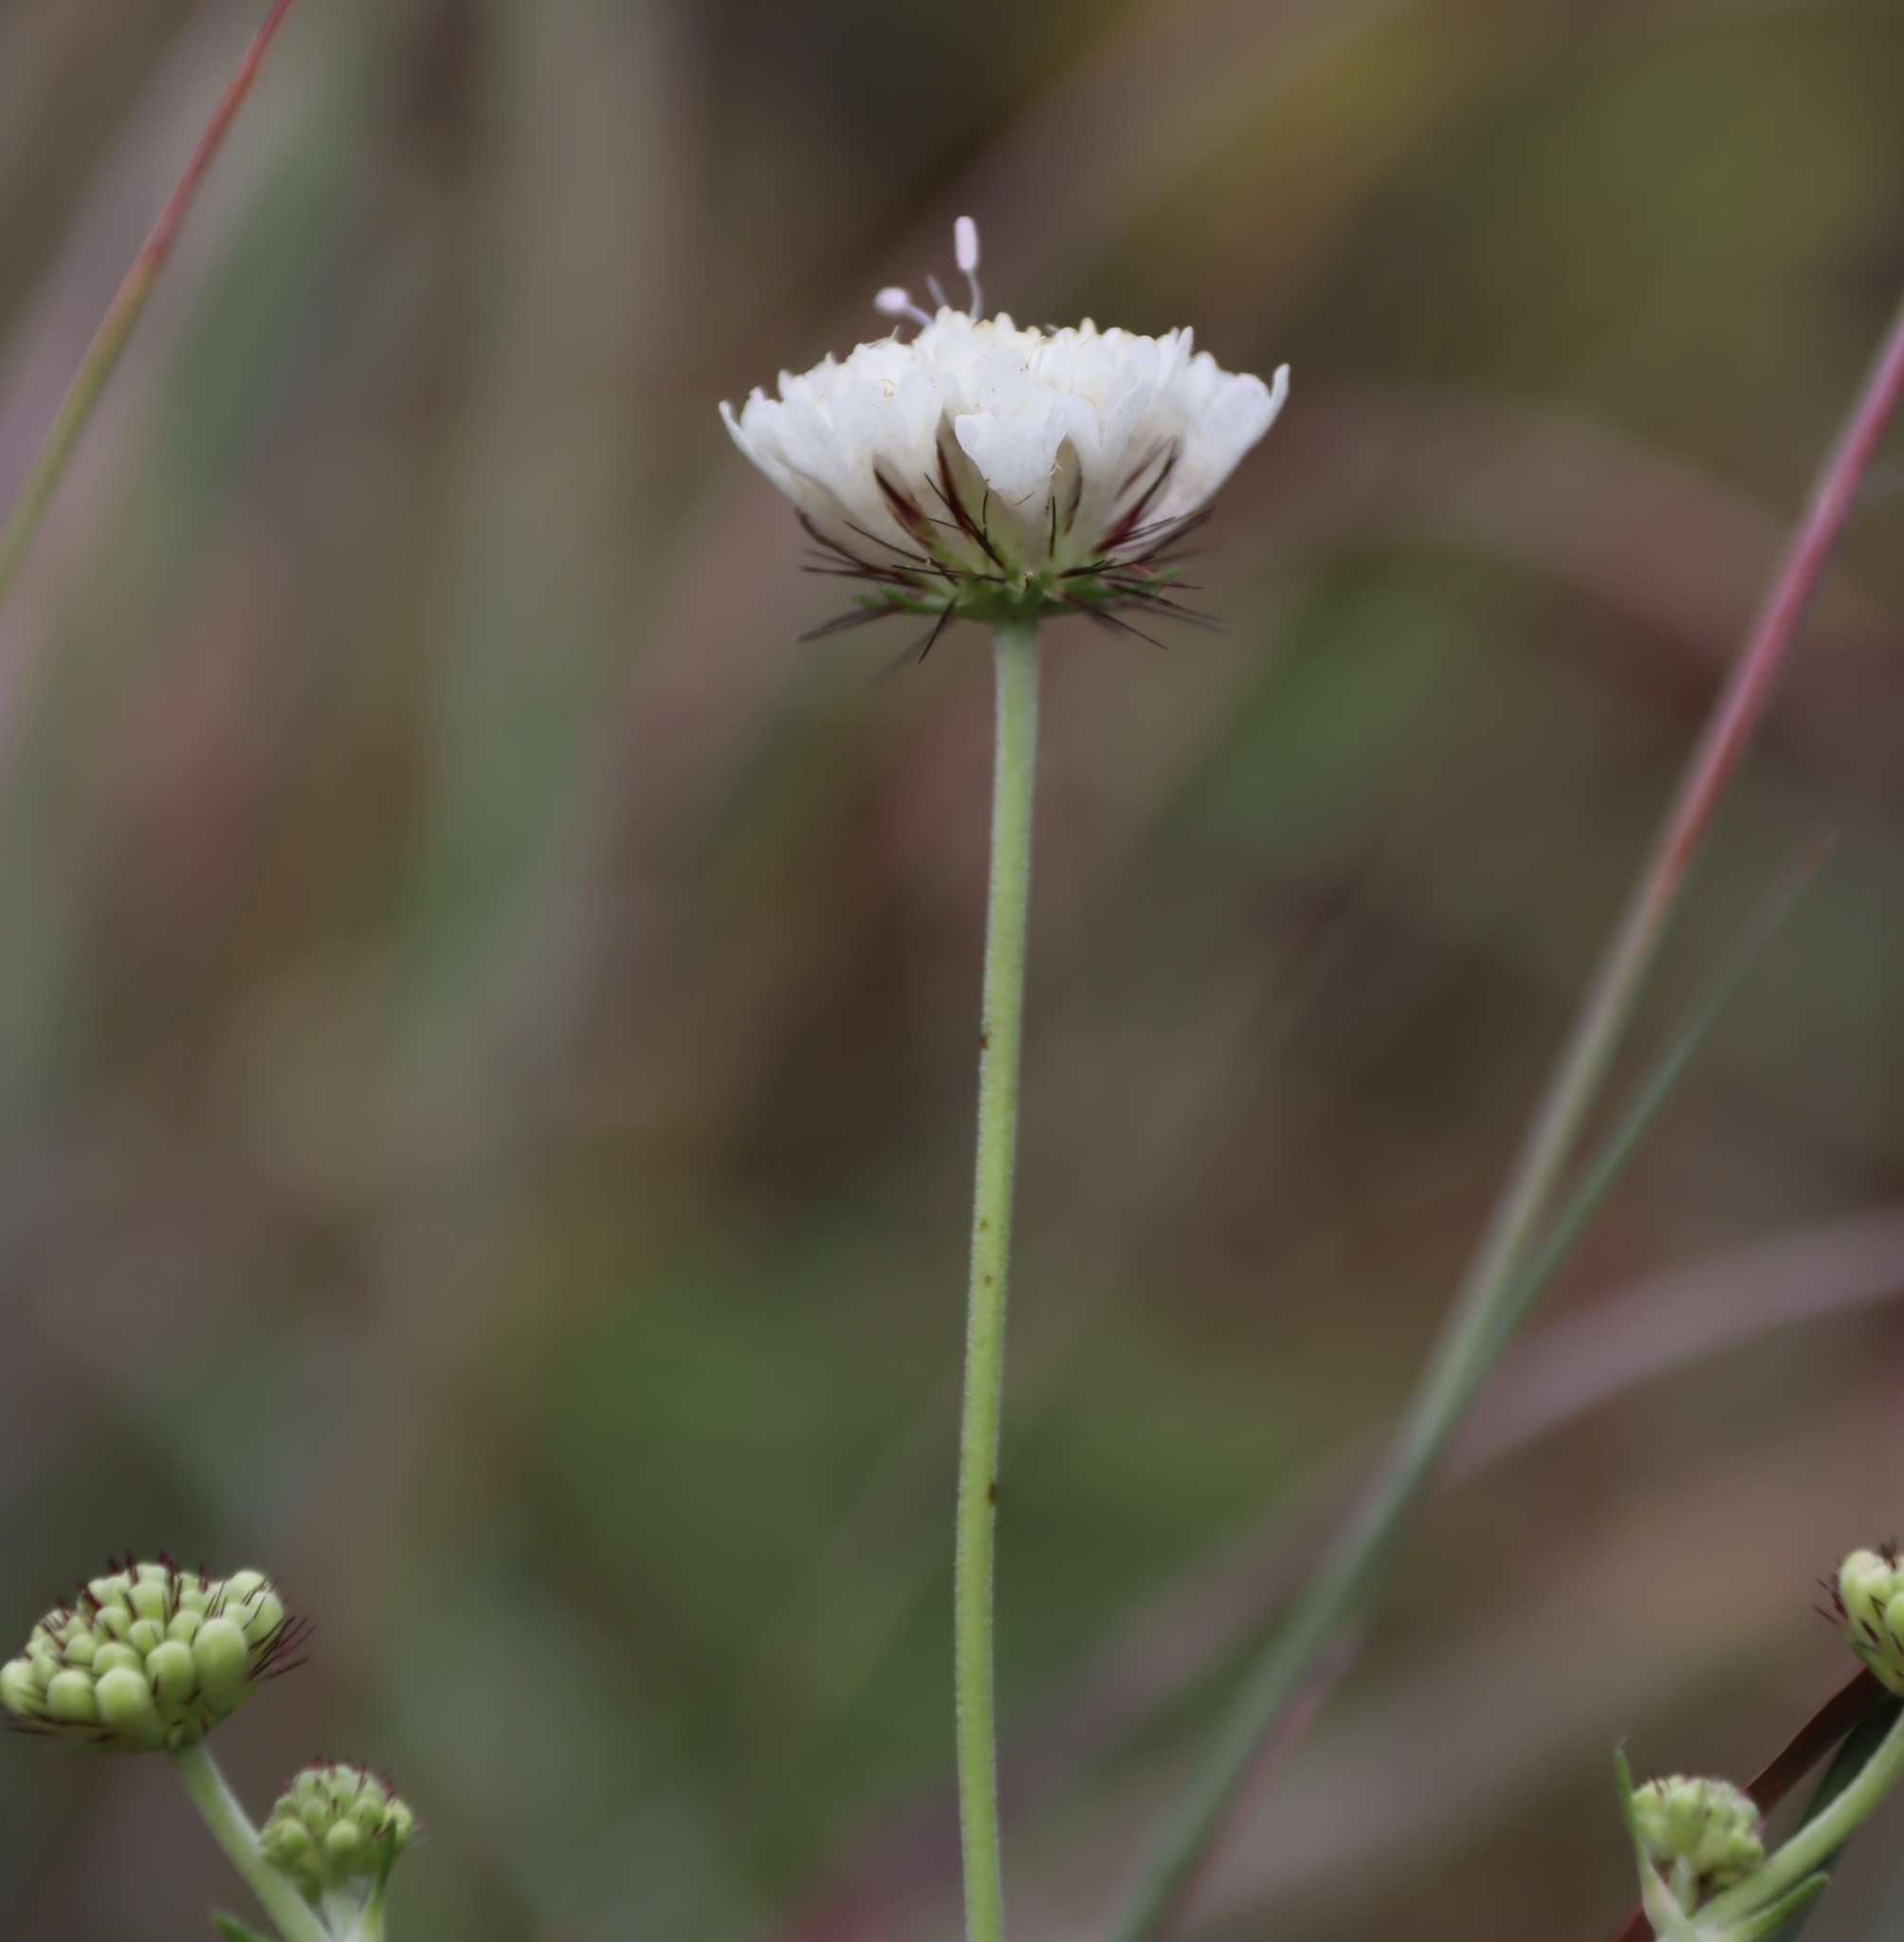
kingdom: Plantae
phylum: Tracheophyta
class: Magnoliopsida
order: Dipsacales
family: Caprifoliaceae
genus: Scabiosa
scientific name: Scabiosa columbaria
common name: Small scabious
